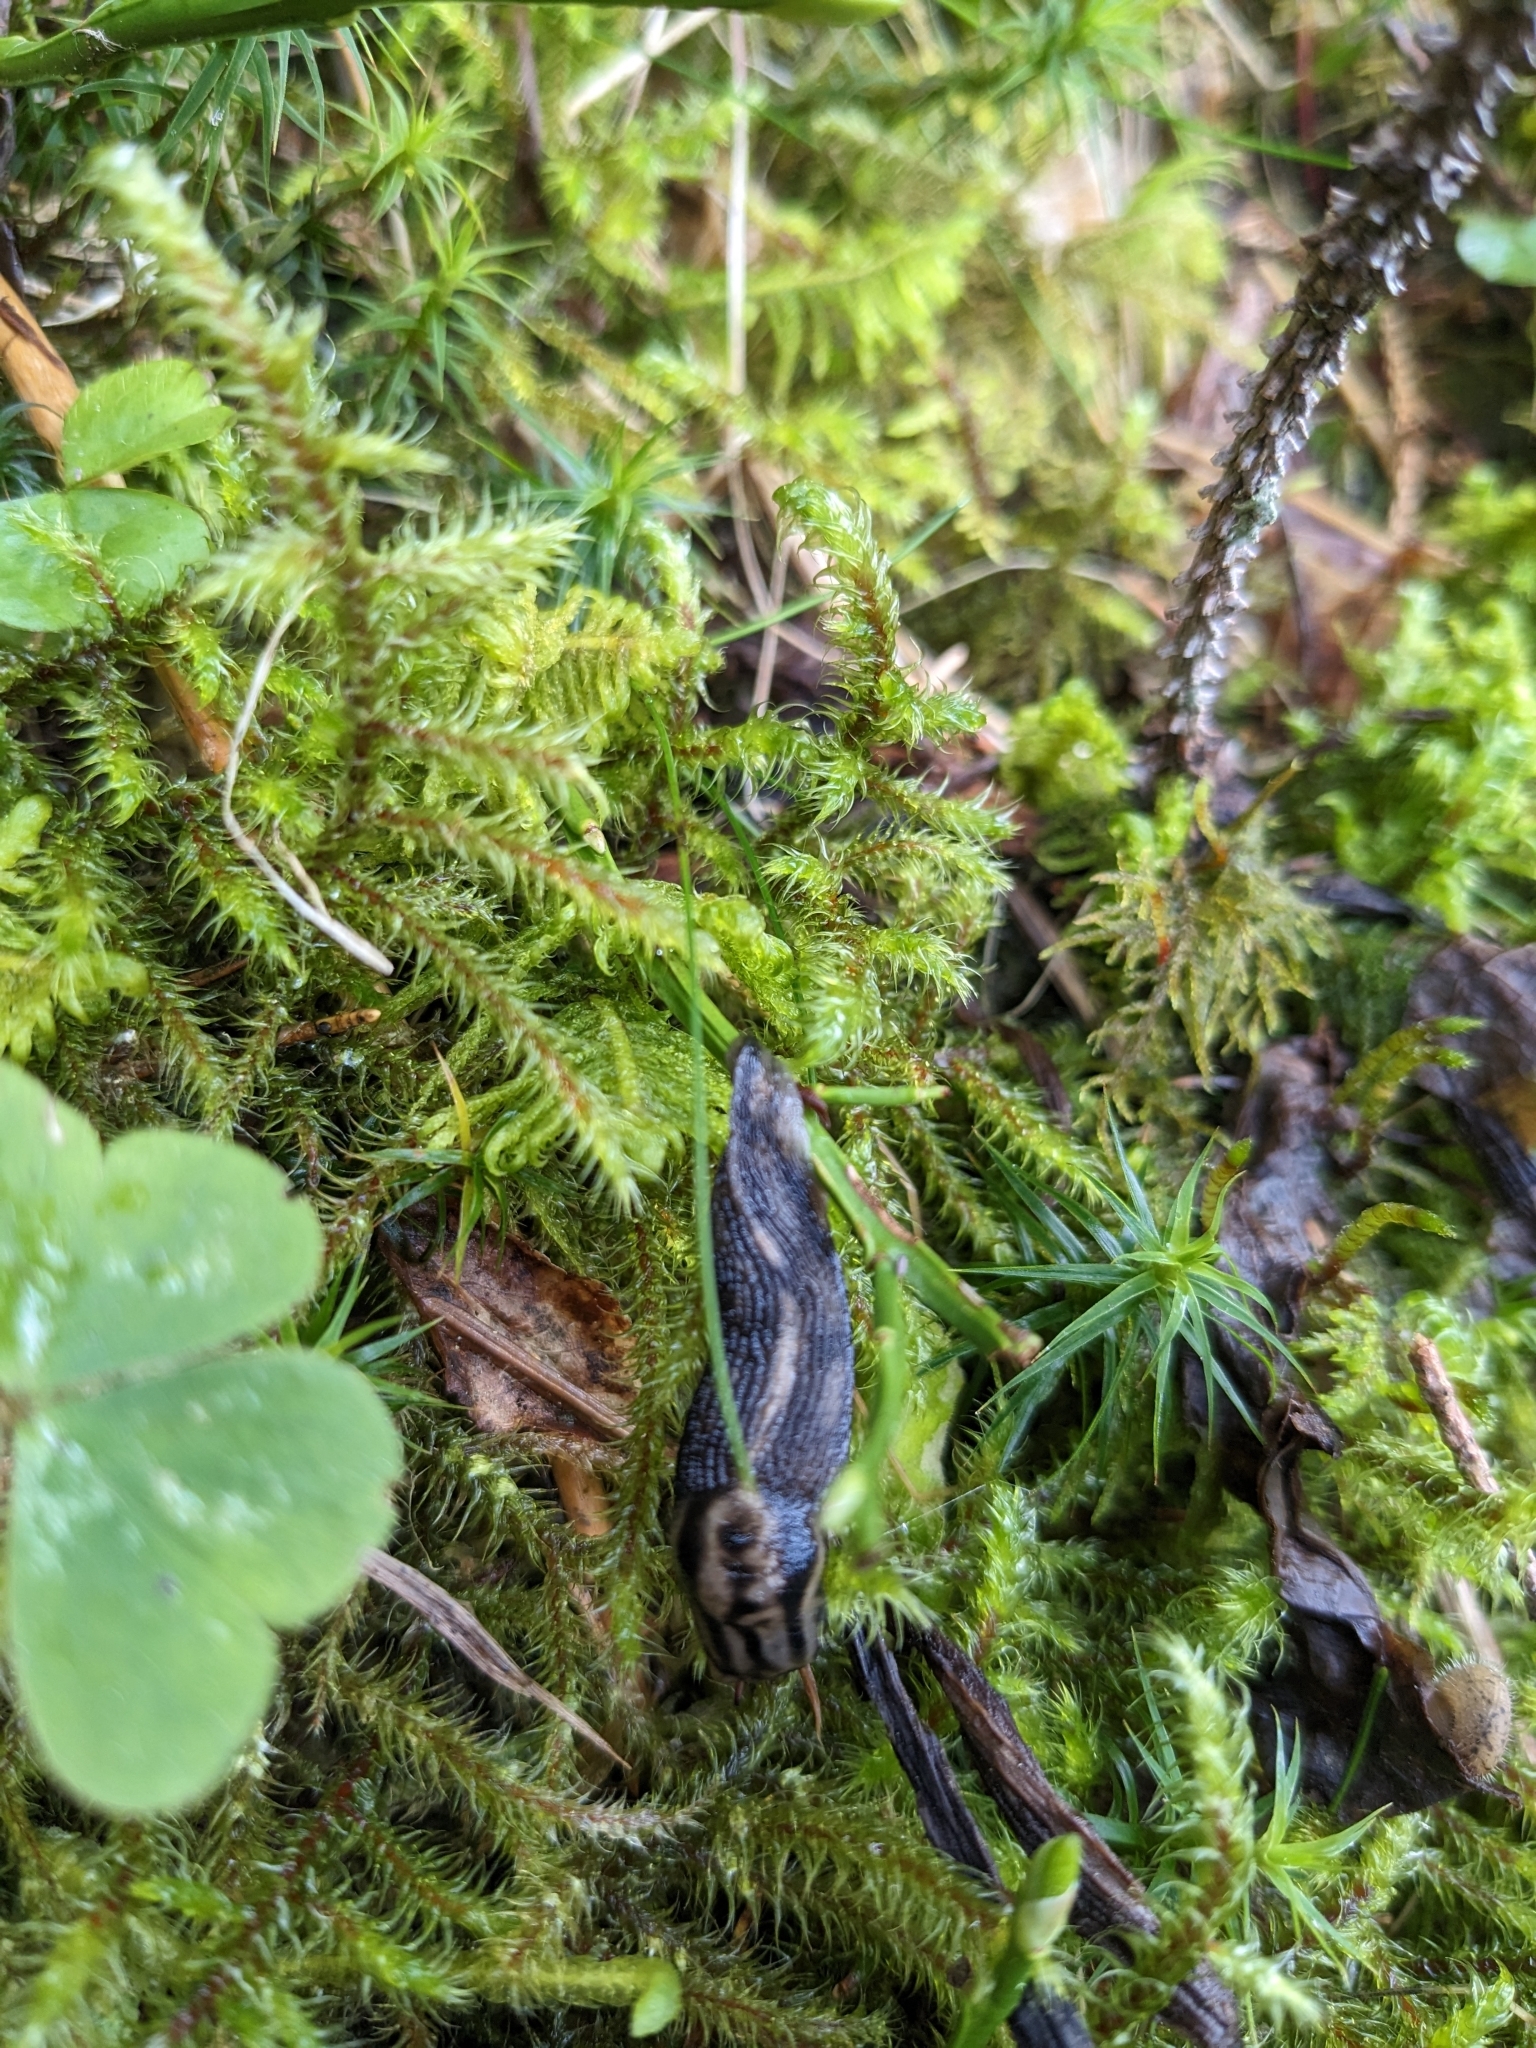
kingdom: Plantae
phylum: Tracheophyta
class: Magnoliopsida
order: Asterales
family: Asteraceae
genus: Petasites
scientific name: Petasites albus
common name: White butterbur
